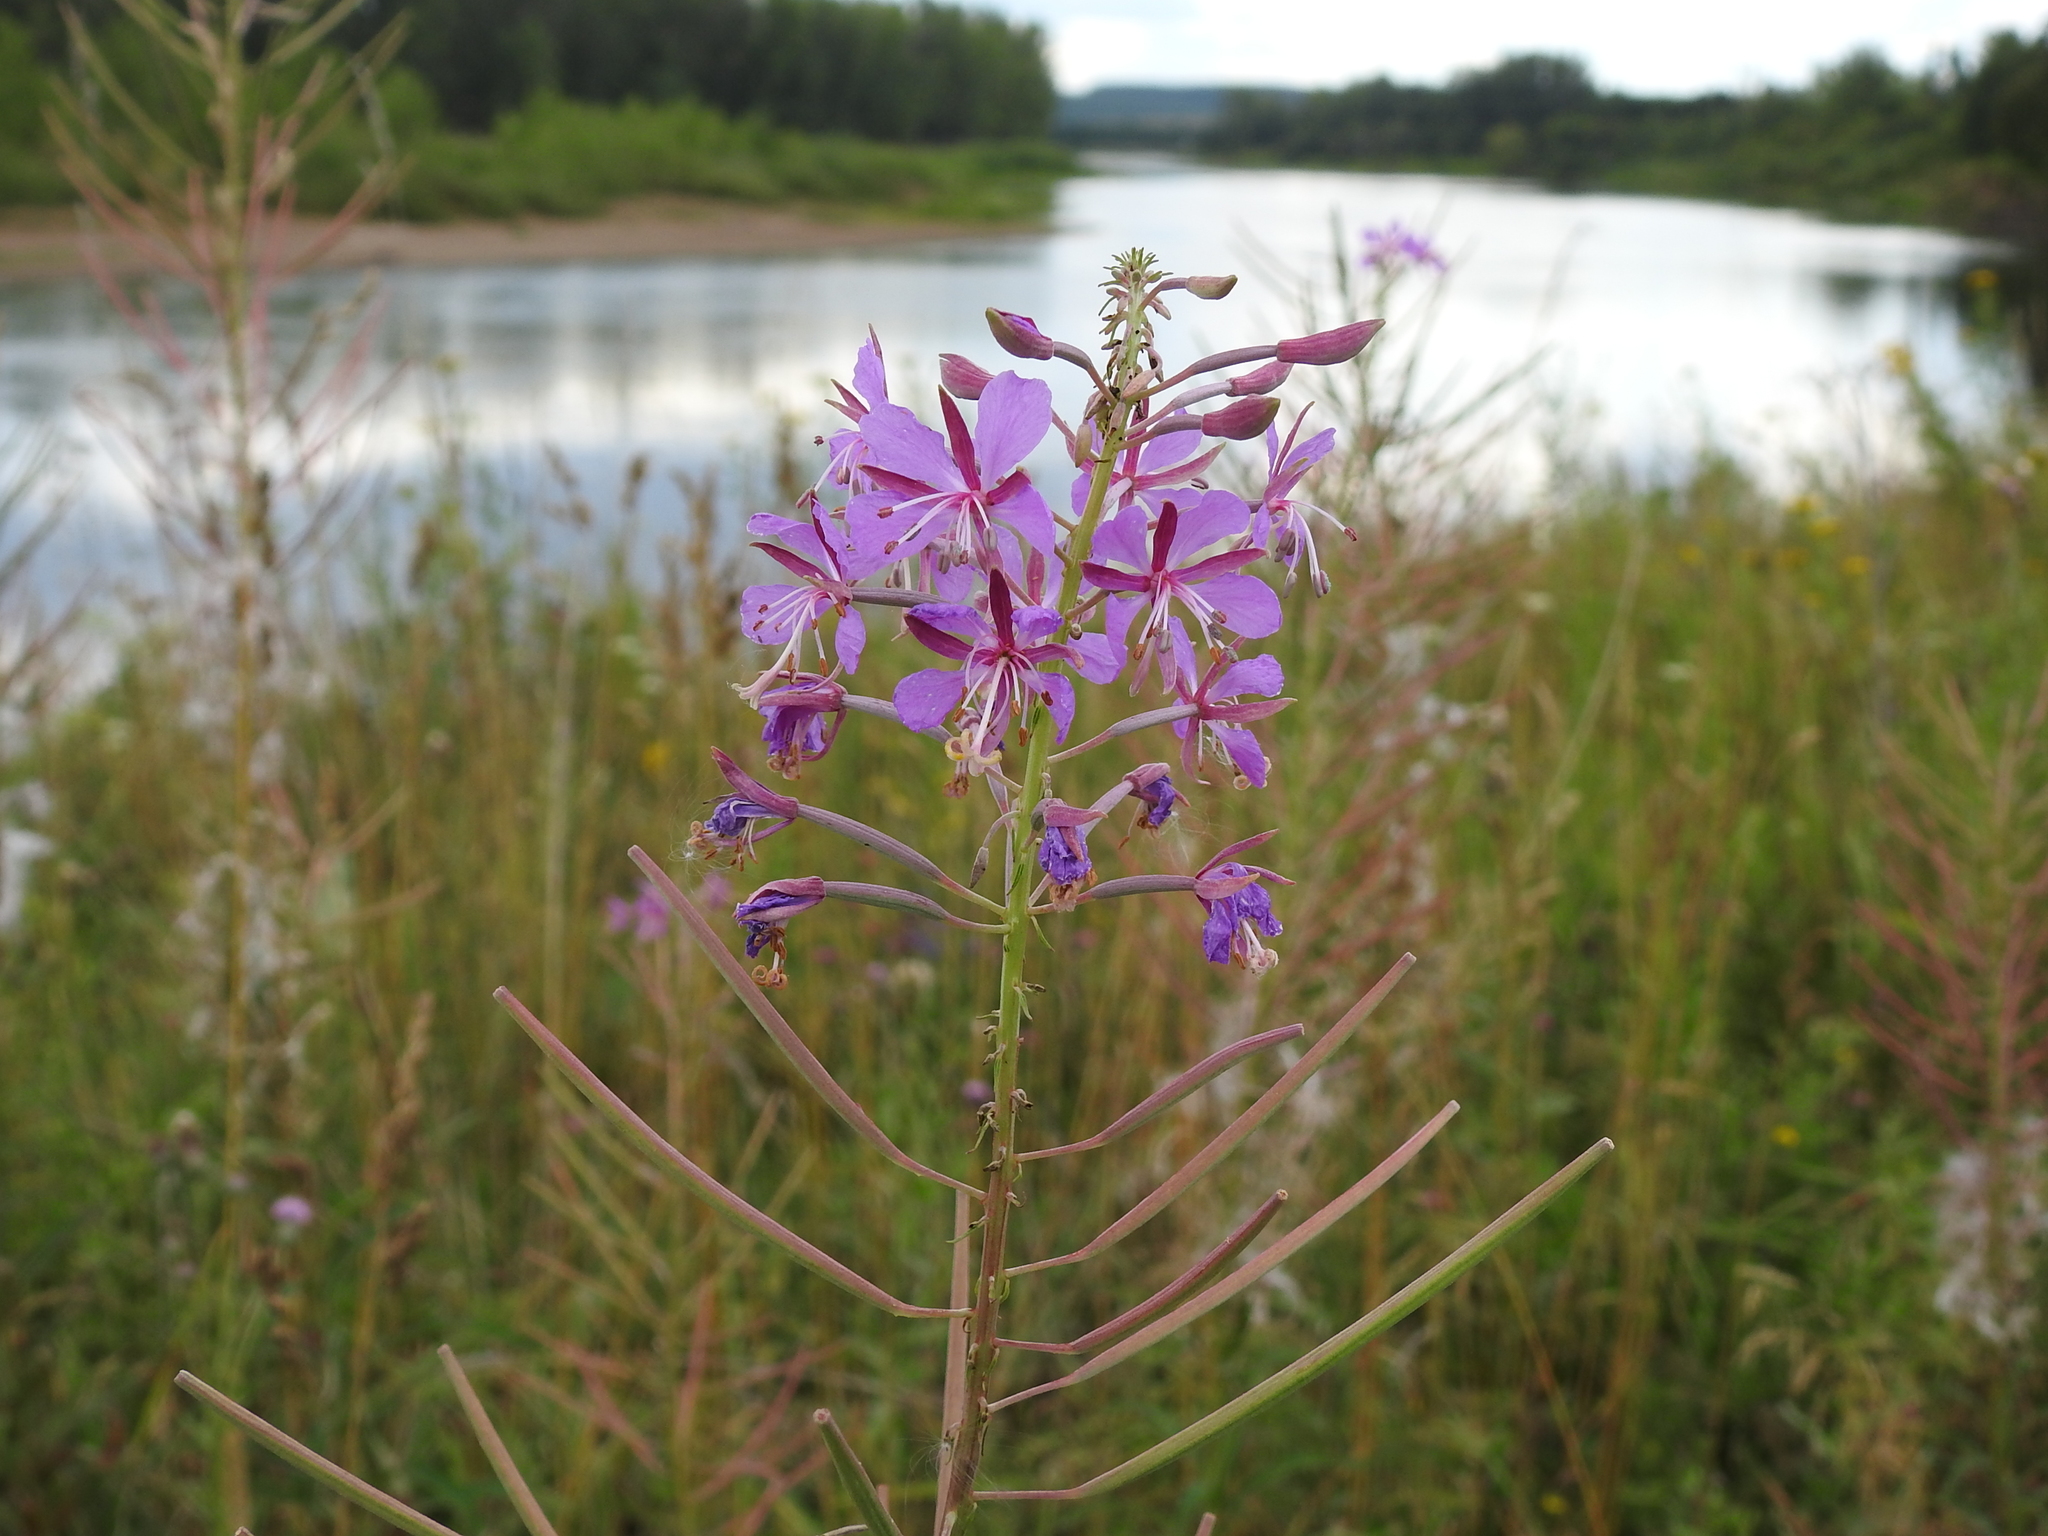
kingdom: Plantae
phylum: Tracheophyta
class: Magnoliopsida
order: Myrtales
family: Onagraceae
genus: Chamaenerion
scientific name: Chamaenerion angustifolium
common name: Fireweed
